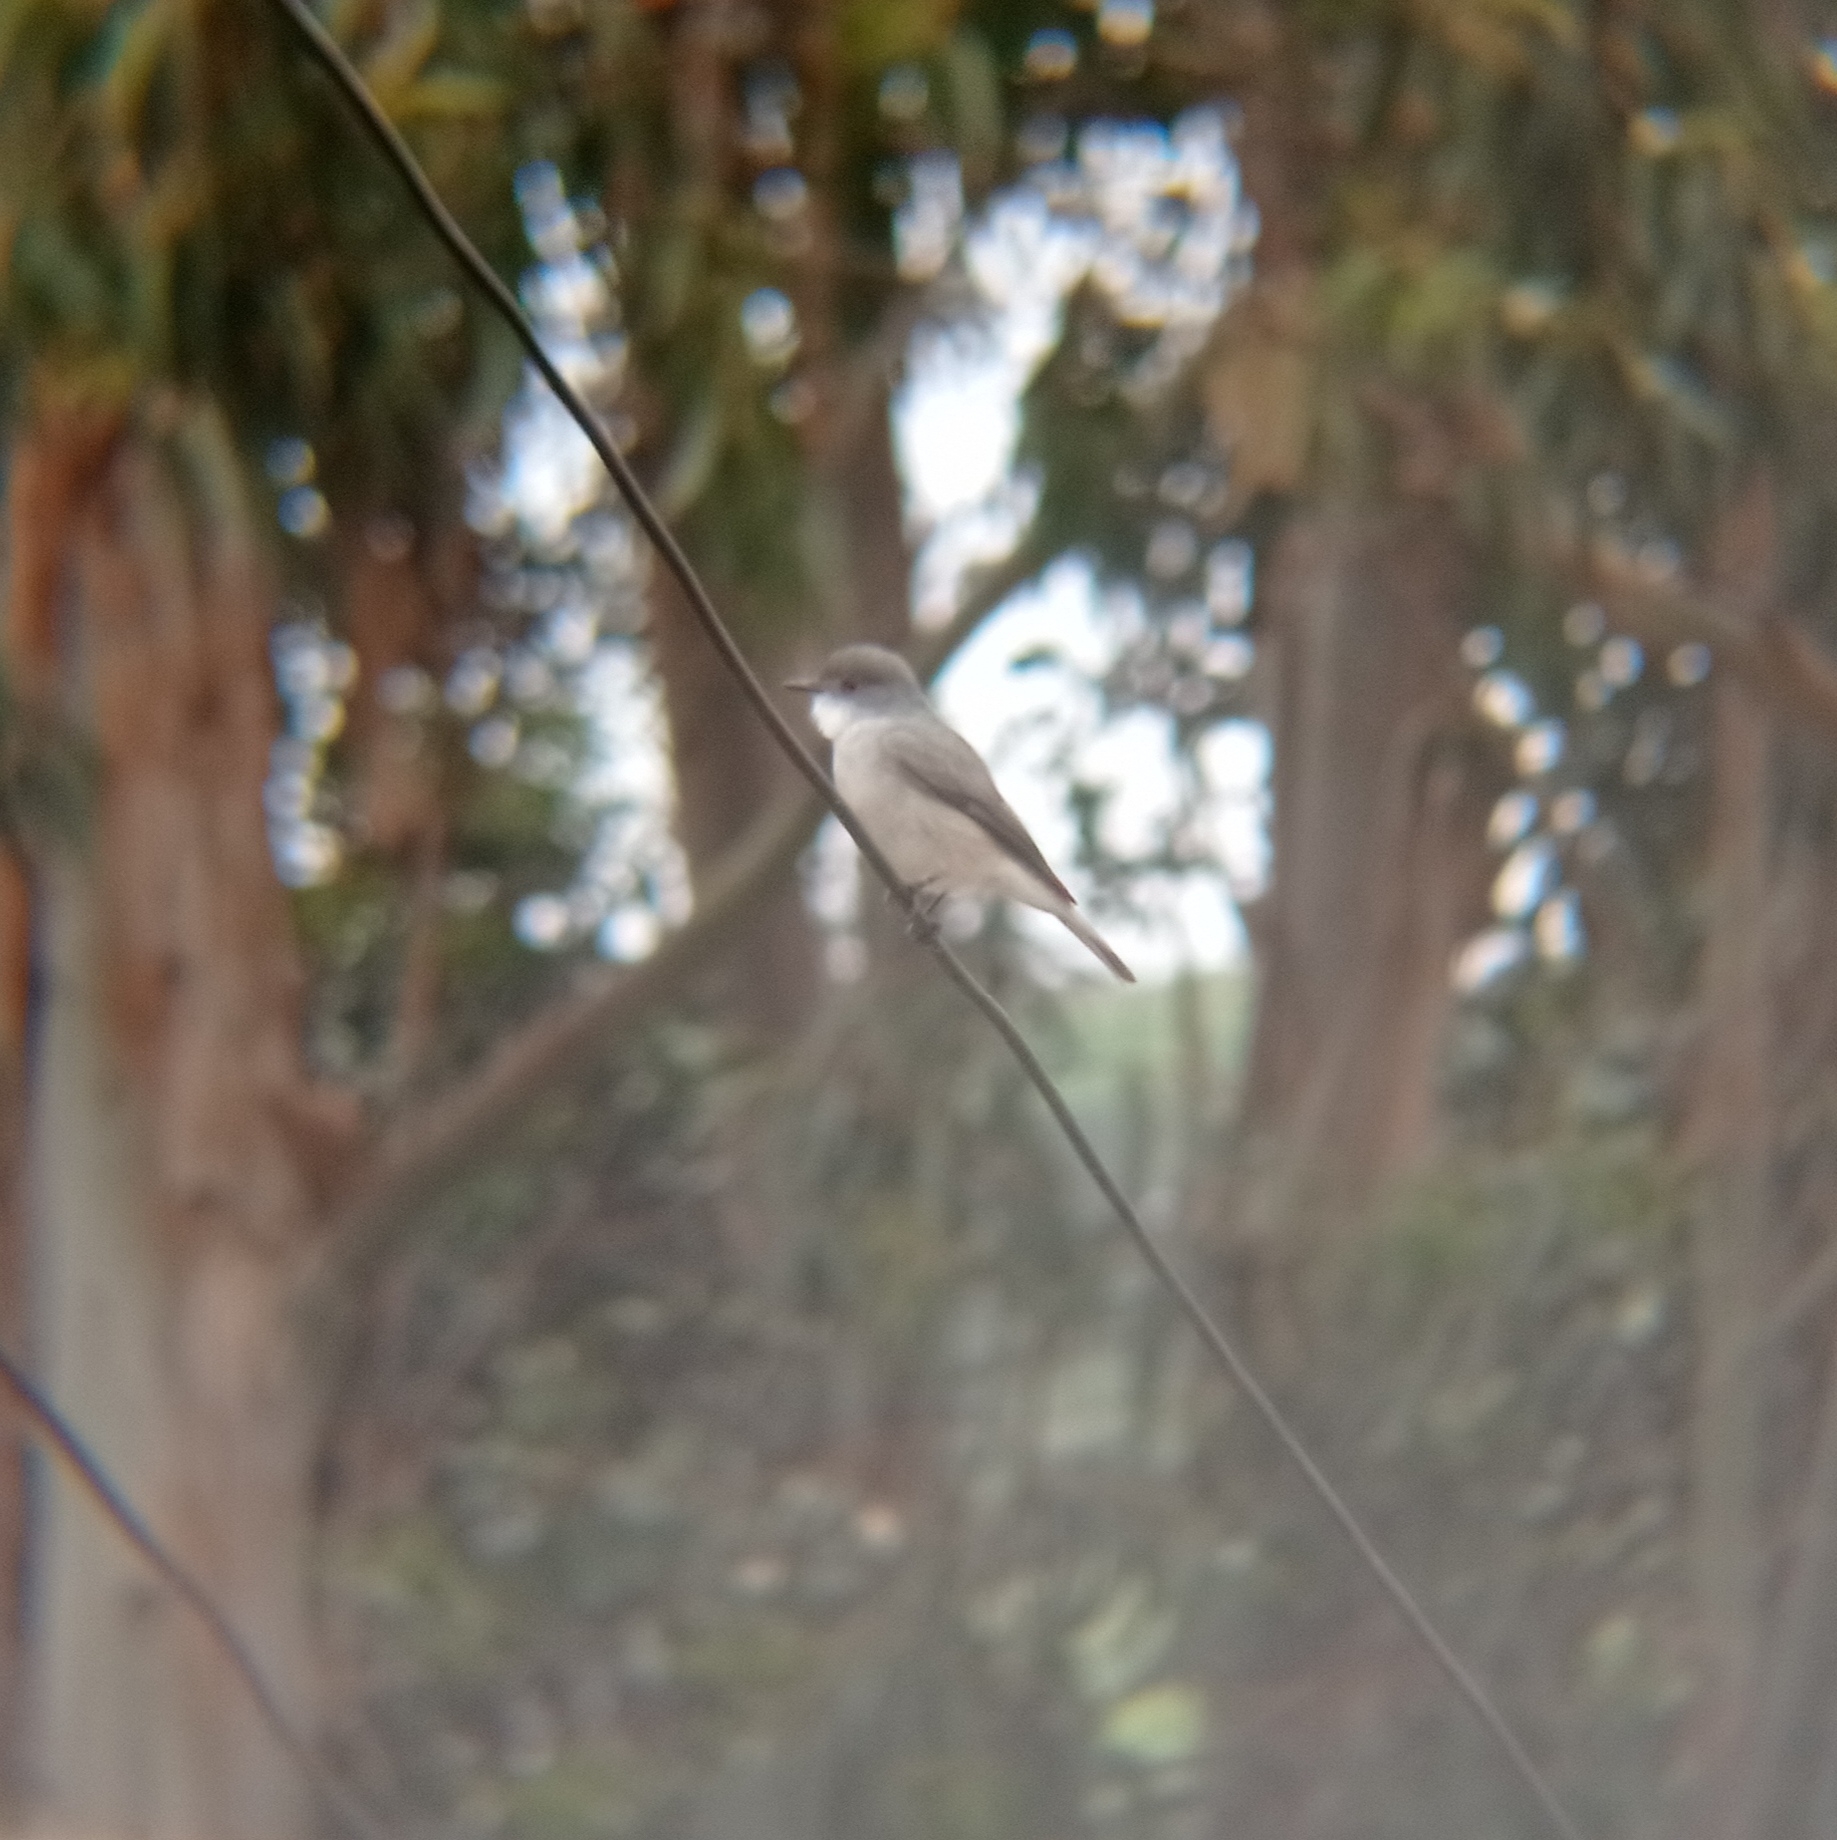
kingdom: Animalia
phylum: Chordata
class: Aves
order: Passeriformes
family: Tyrannidae
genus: Xolmis
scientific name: Xolmis pyrope
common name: Fire-eyed diucon
